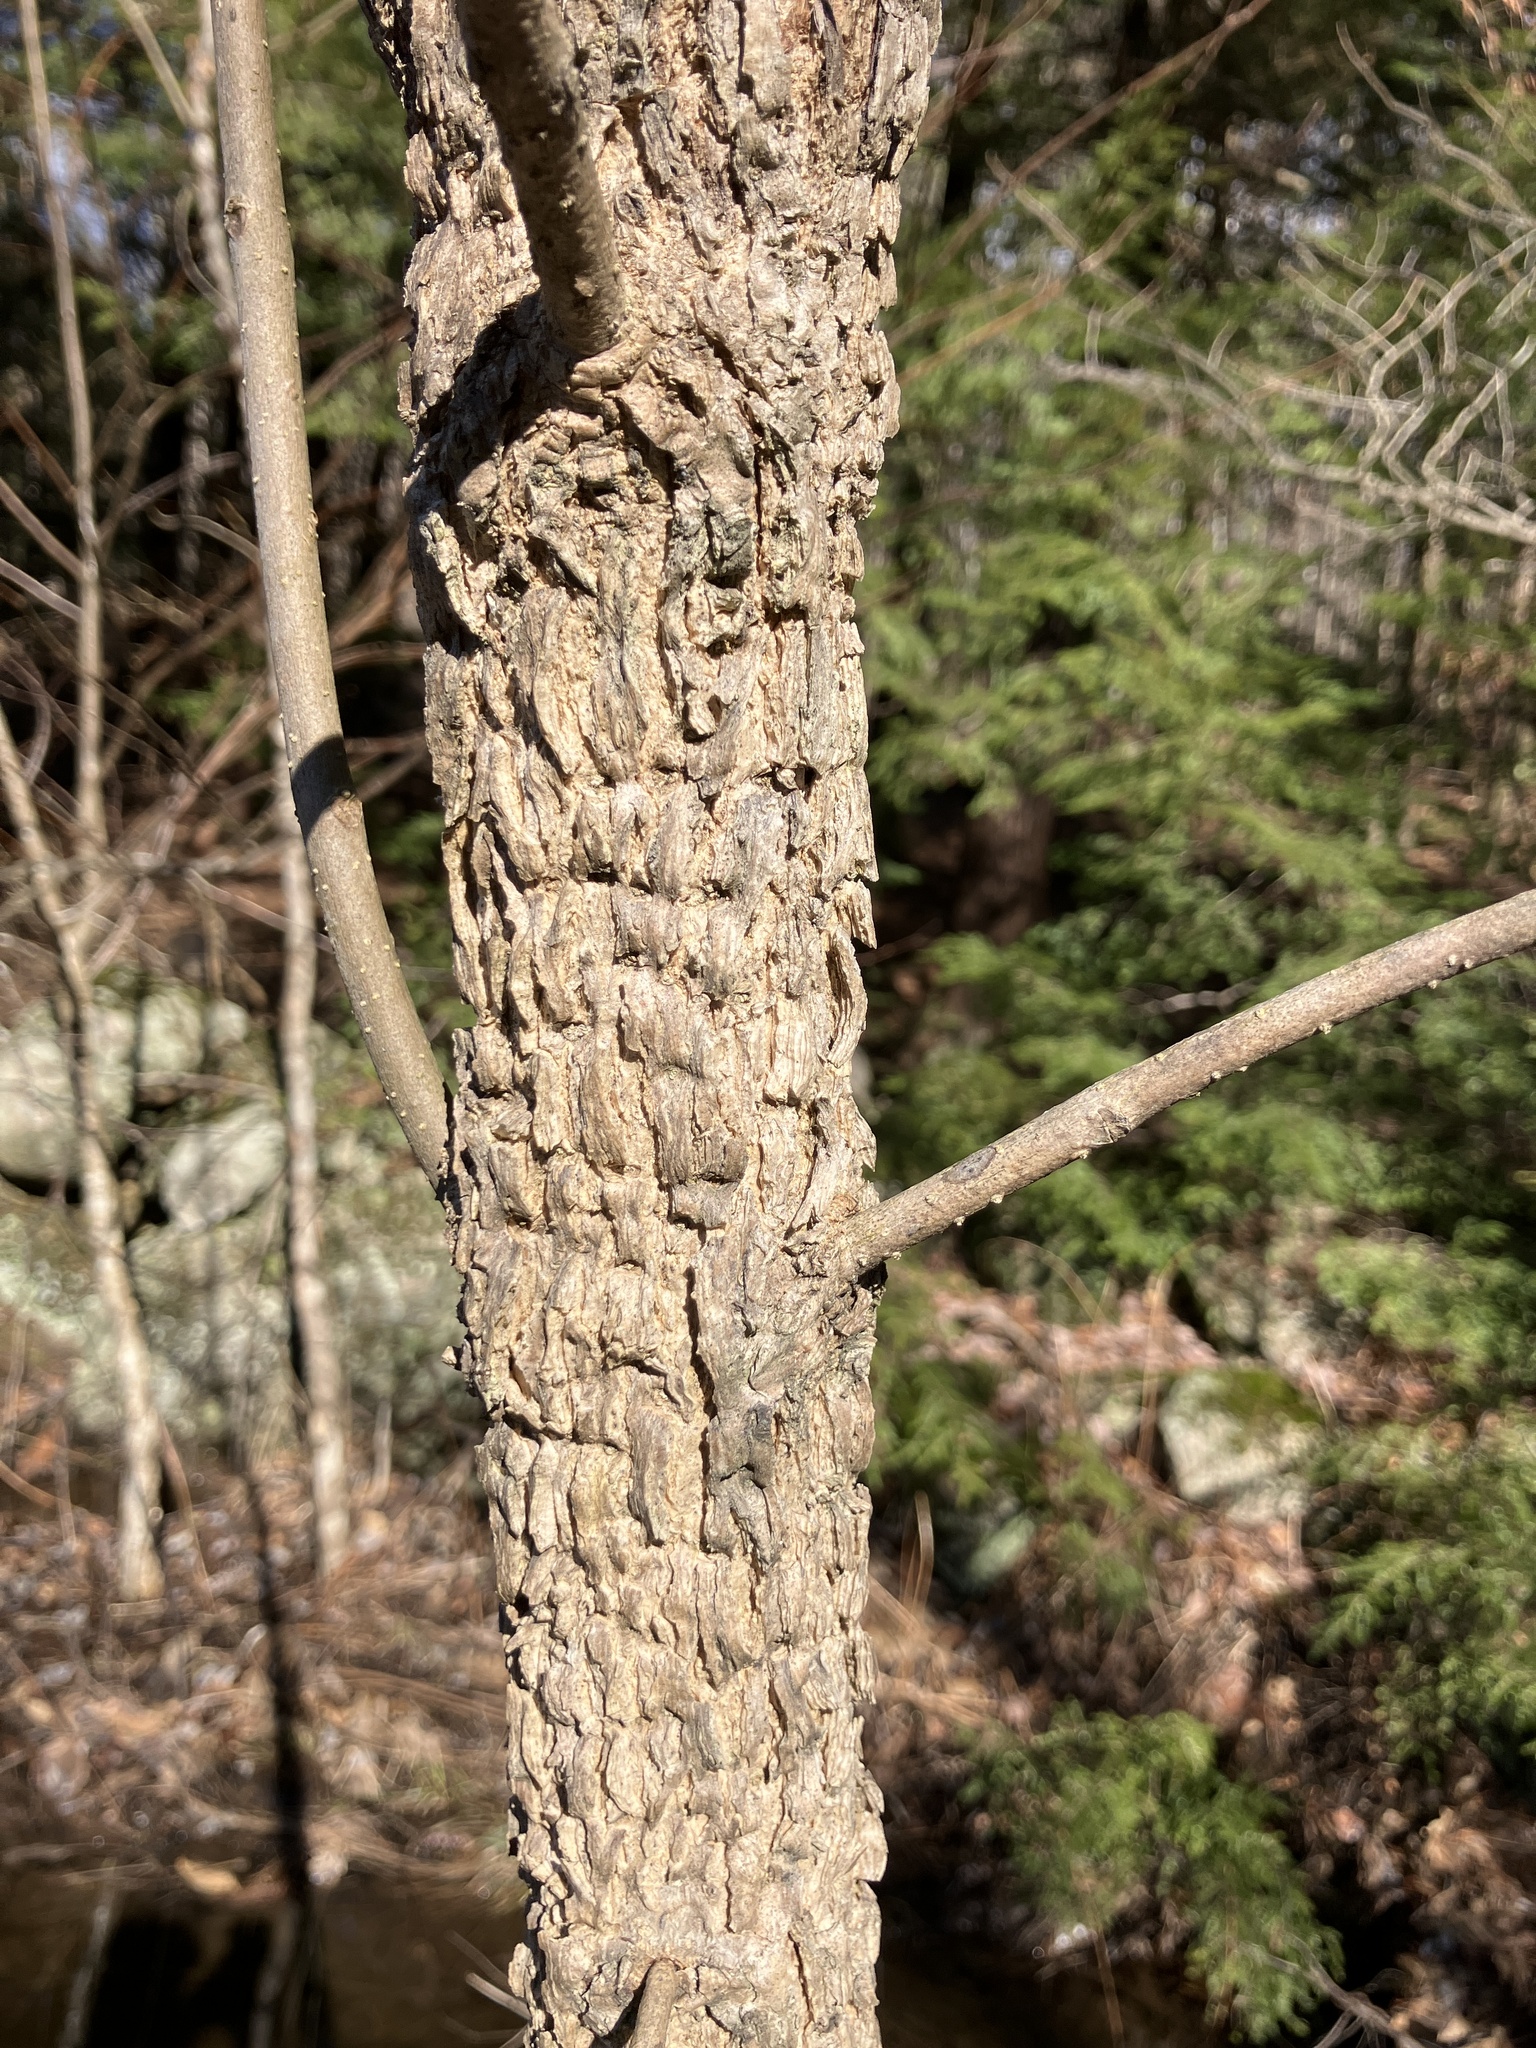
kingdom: Plantae
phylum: Tracheophyta
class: Magnoliopsida
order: Lamiales
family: Oleaceae
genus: Fraxinus
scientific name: Fraxinus nigra
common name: Black ash
